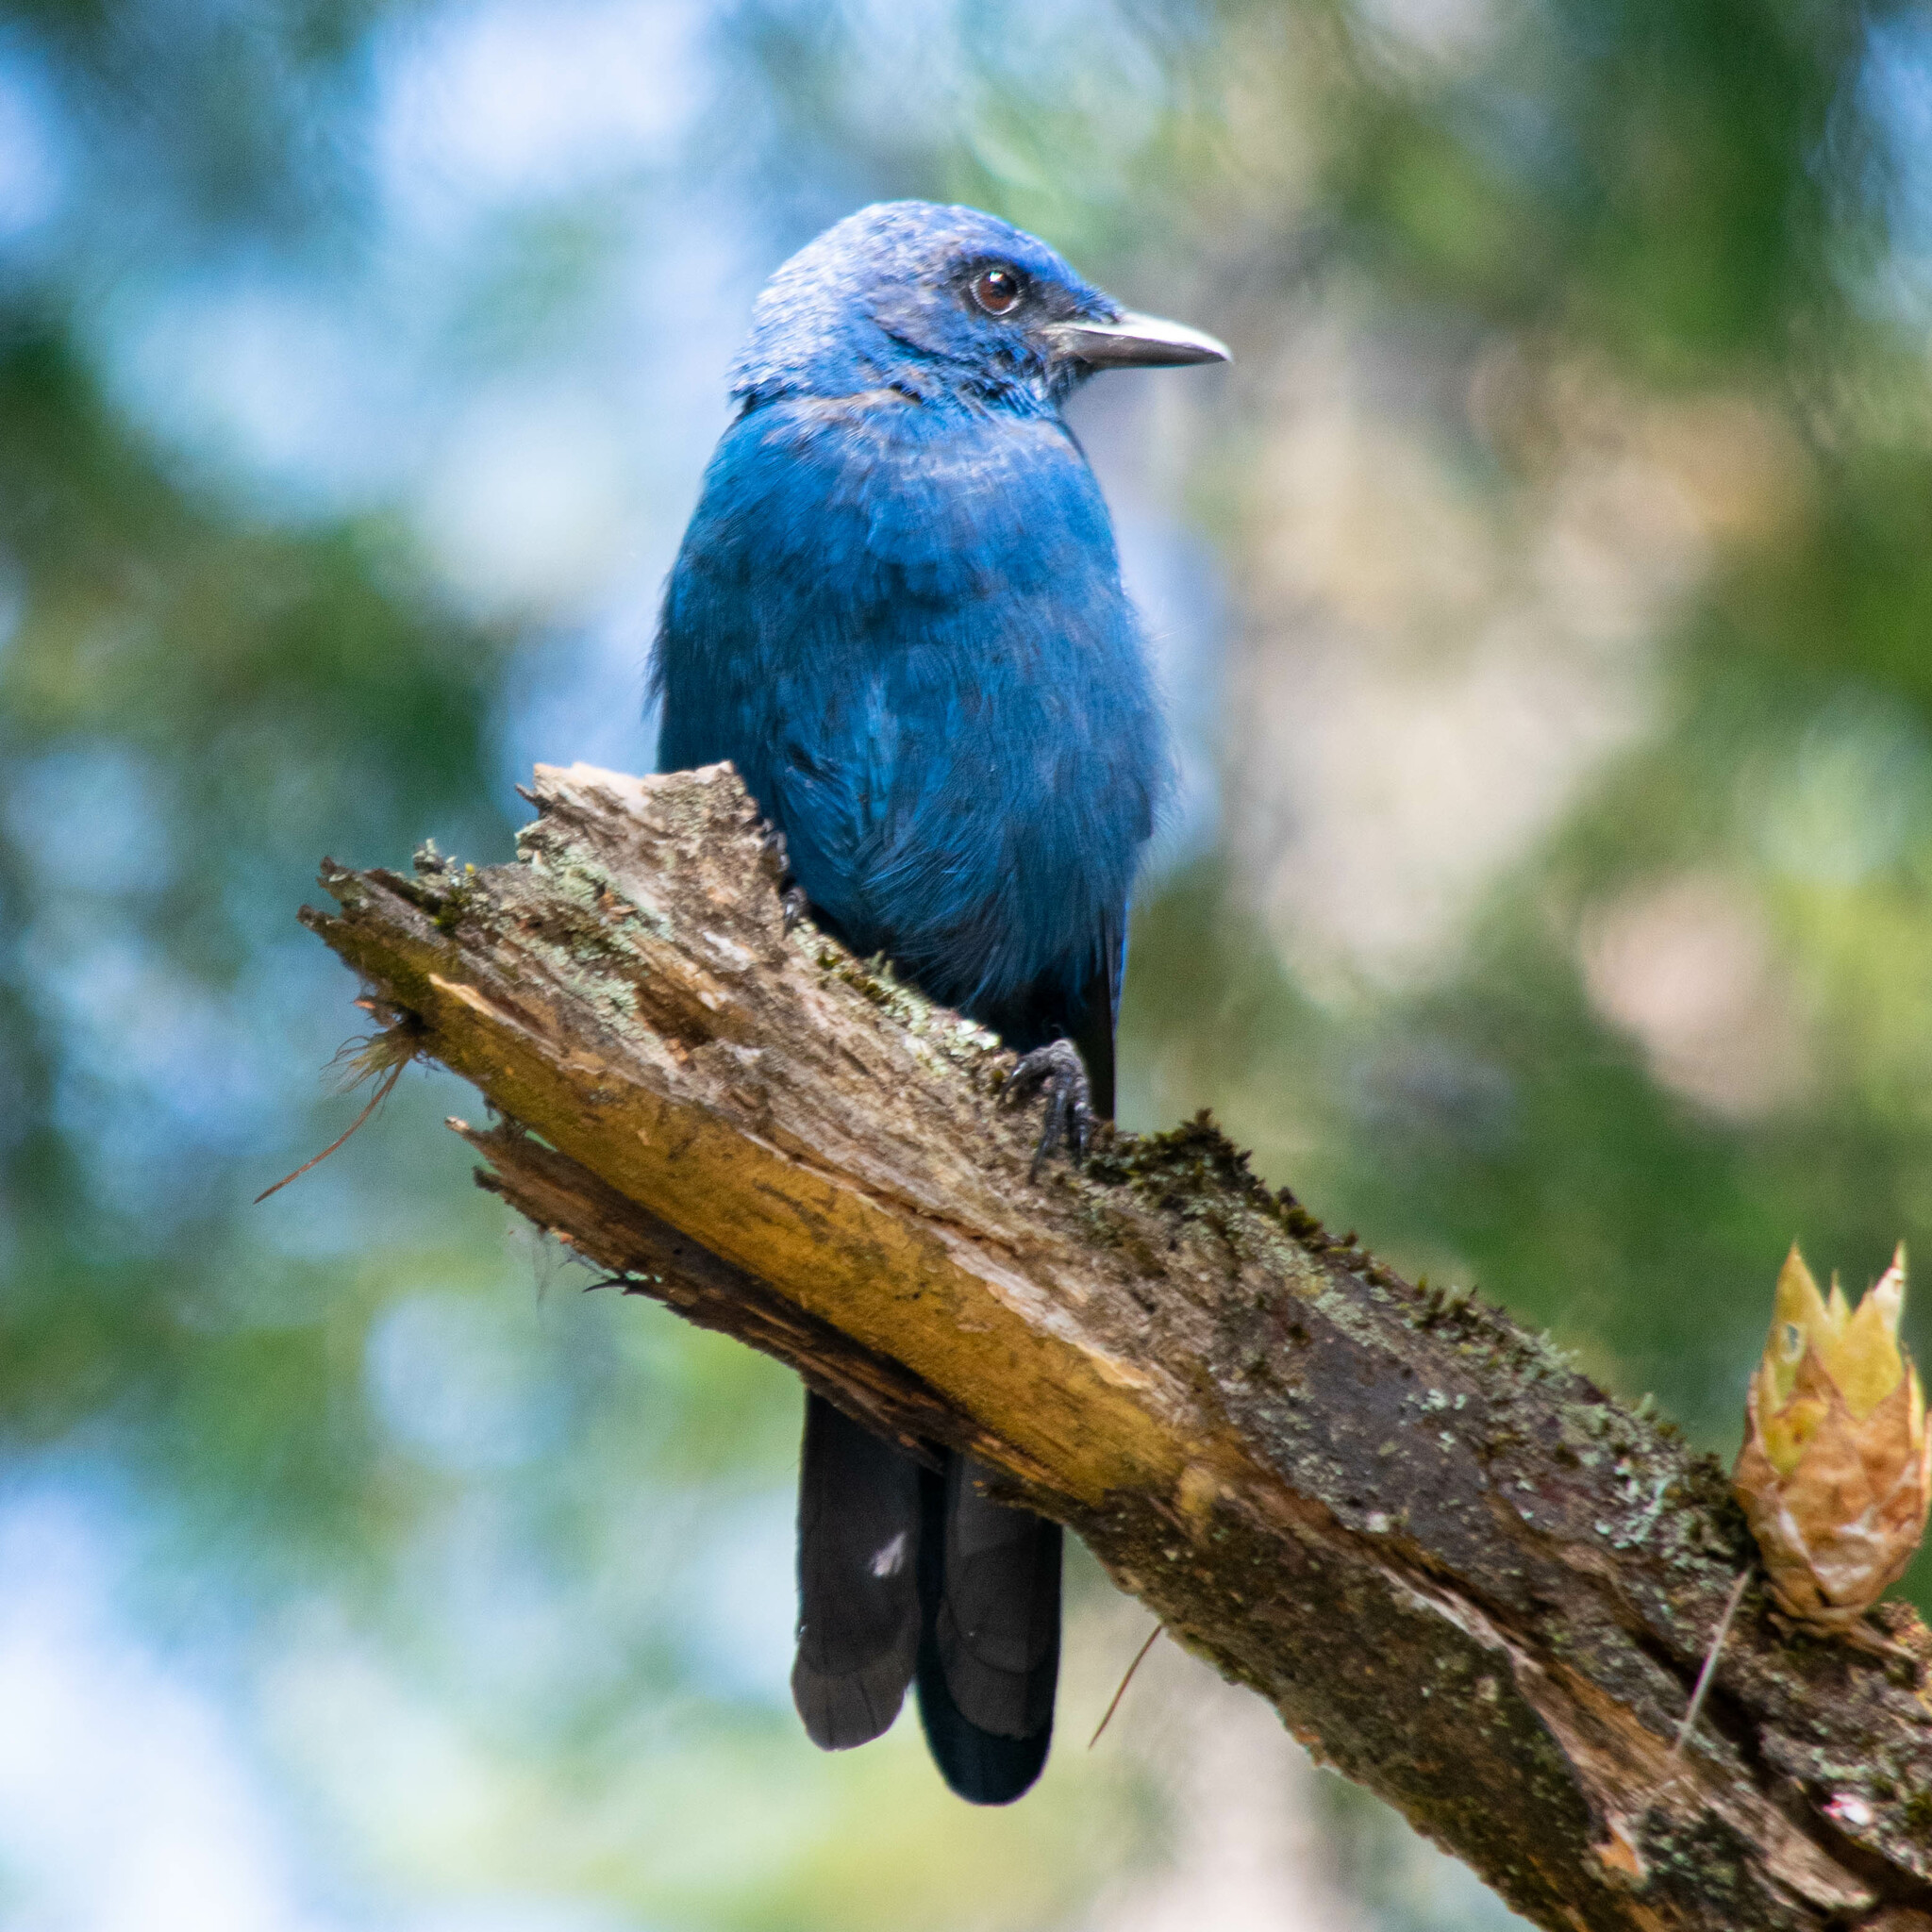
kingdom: Animalia
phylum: Chordata
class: Aves
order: Passeriformes
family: Corvidae
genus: Aphelocoma
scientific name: Aphelocoma unicolor
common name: Unicolored jay
